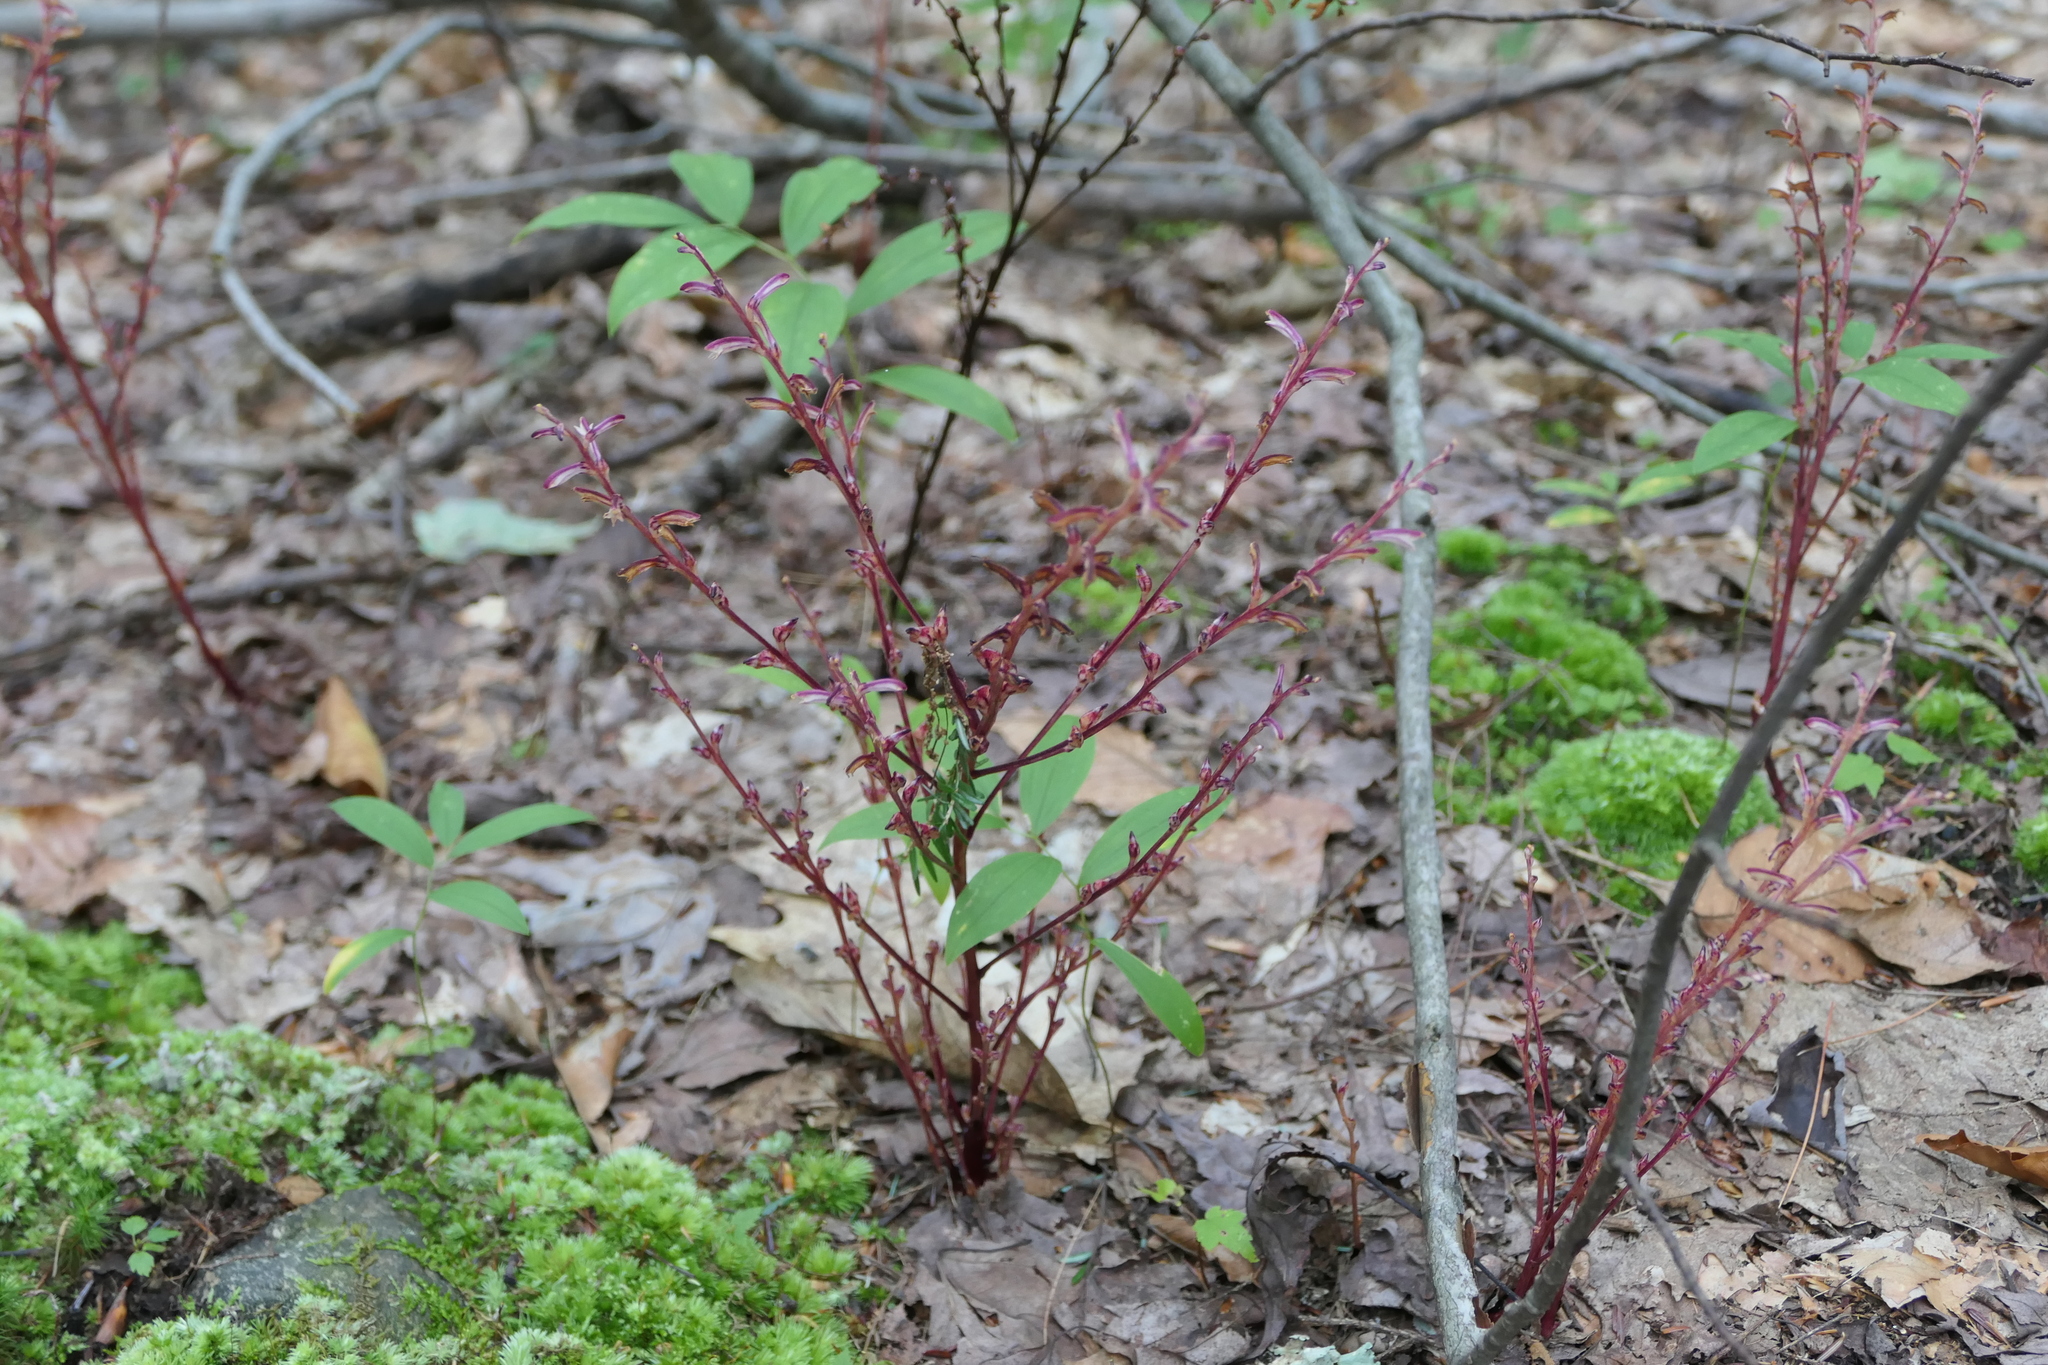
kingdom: Plantae
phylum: Tracheophyta
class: Magnoliopsida
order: Lamiales
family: Orobanchaceae
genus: Epifagus
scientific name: Epifagus virginiana
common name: Beechdrops
